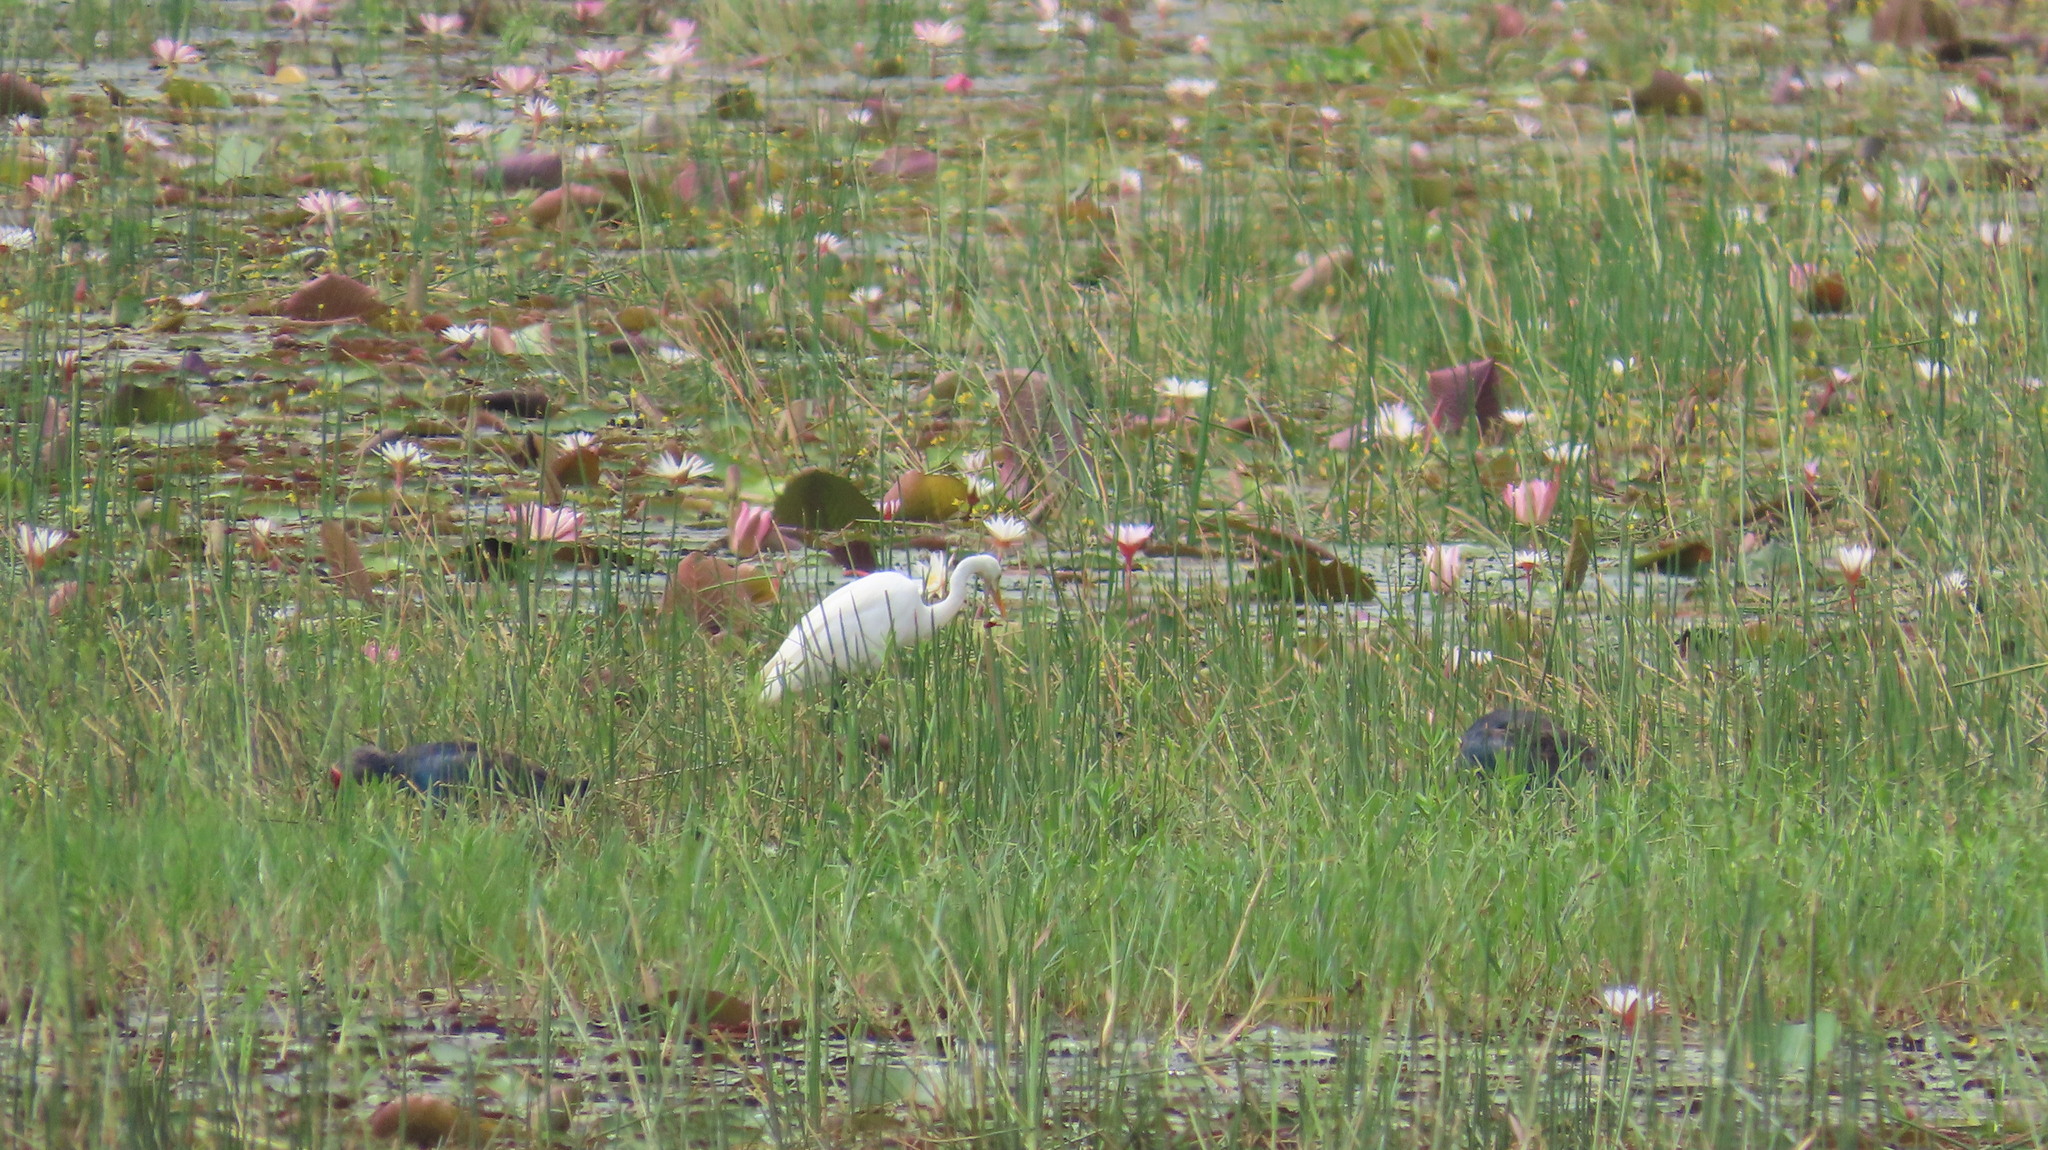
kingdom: Animalia
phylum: Chordata
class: Aves
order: Pelecaniformes
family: Ardeidae
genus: Egretta
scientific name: Egretta intermedia
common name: Intermediate egret
